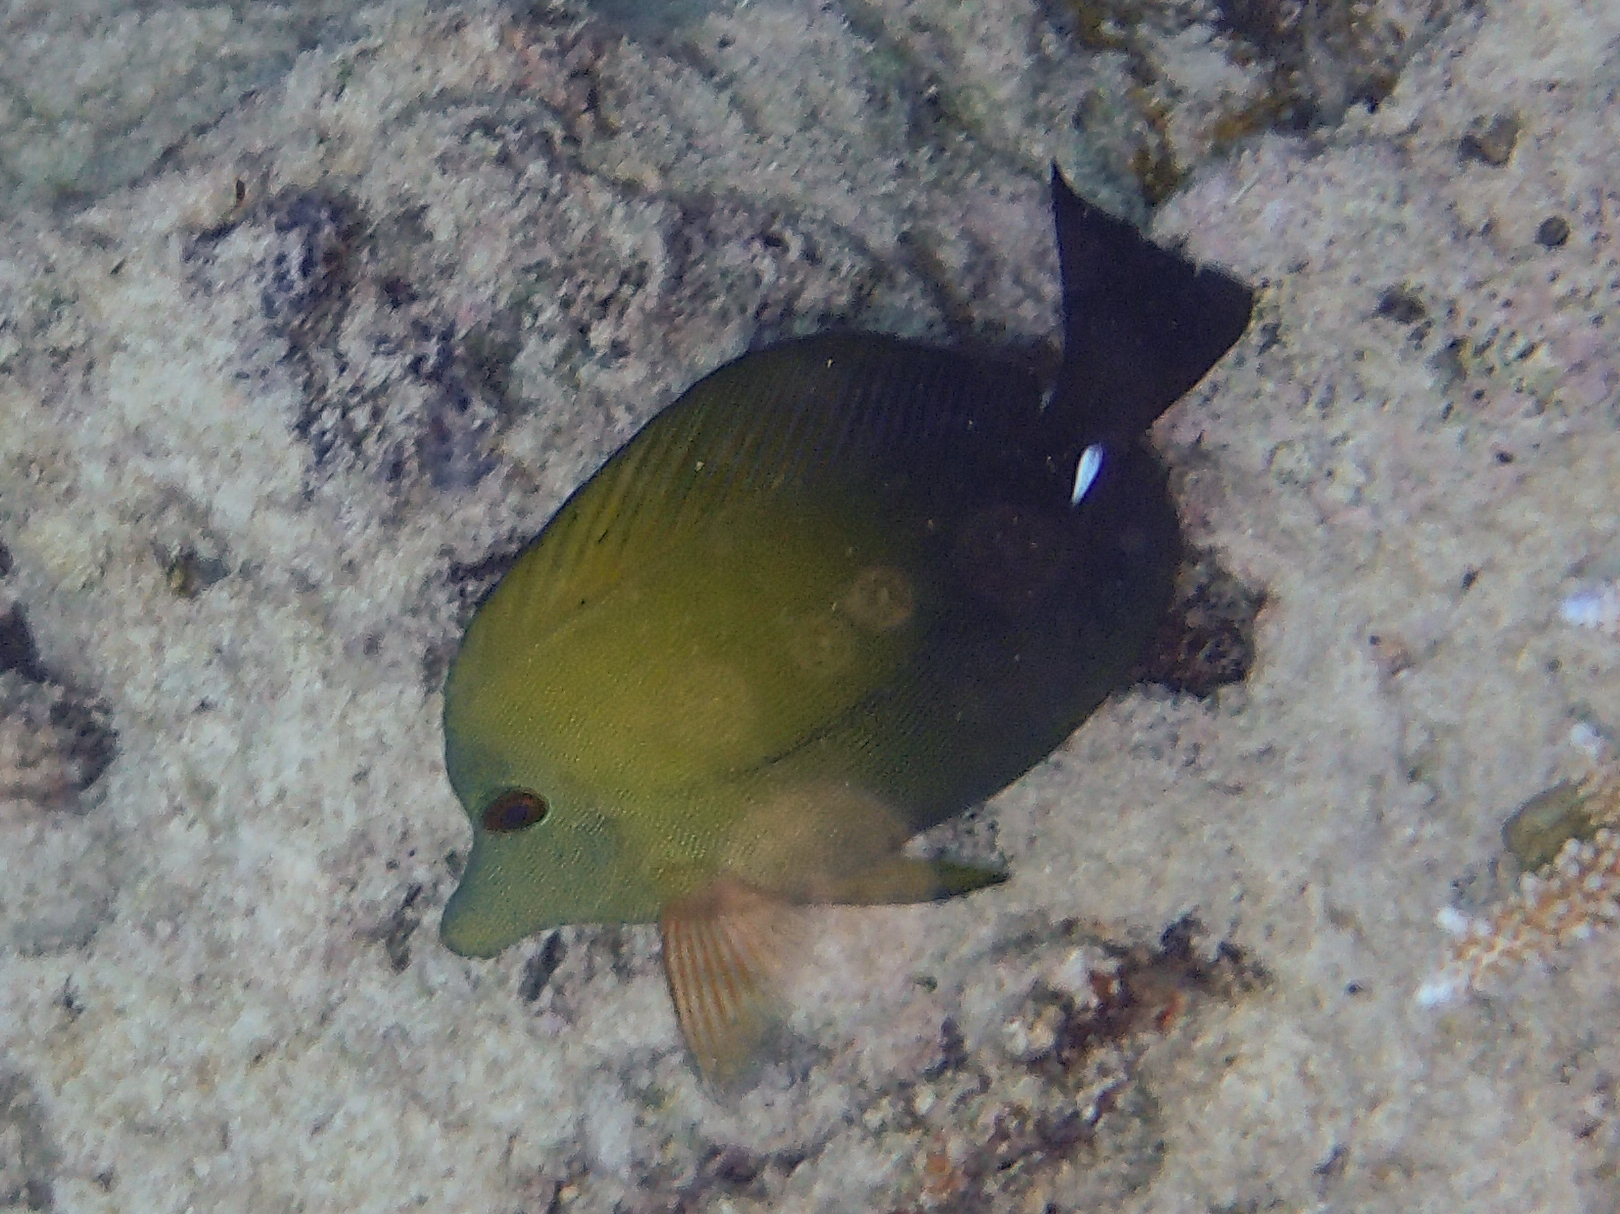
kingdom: Animalia
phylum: Chordata
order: Perciformes
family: Acanthuridae
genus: Zebrasoma
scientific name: Zebrasoma scopas
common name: Twotone tang
